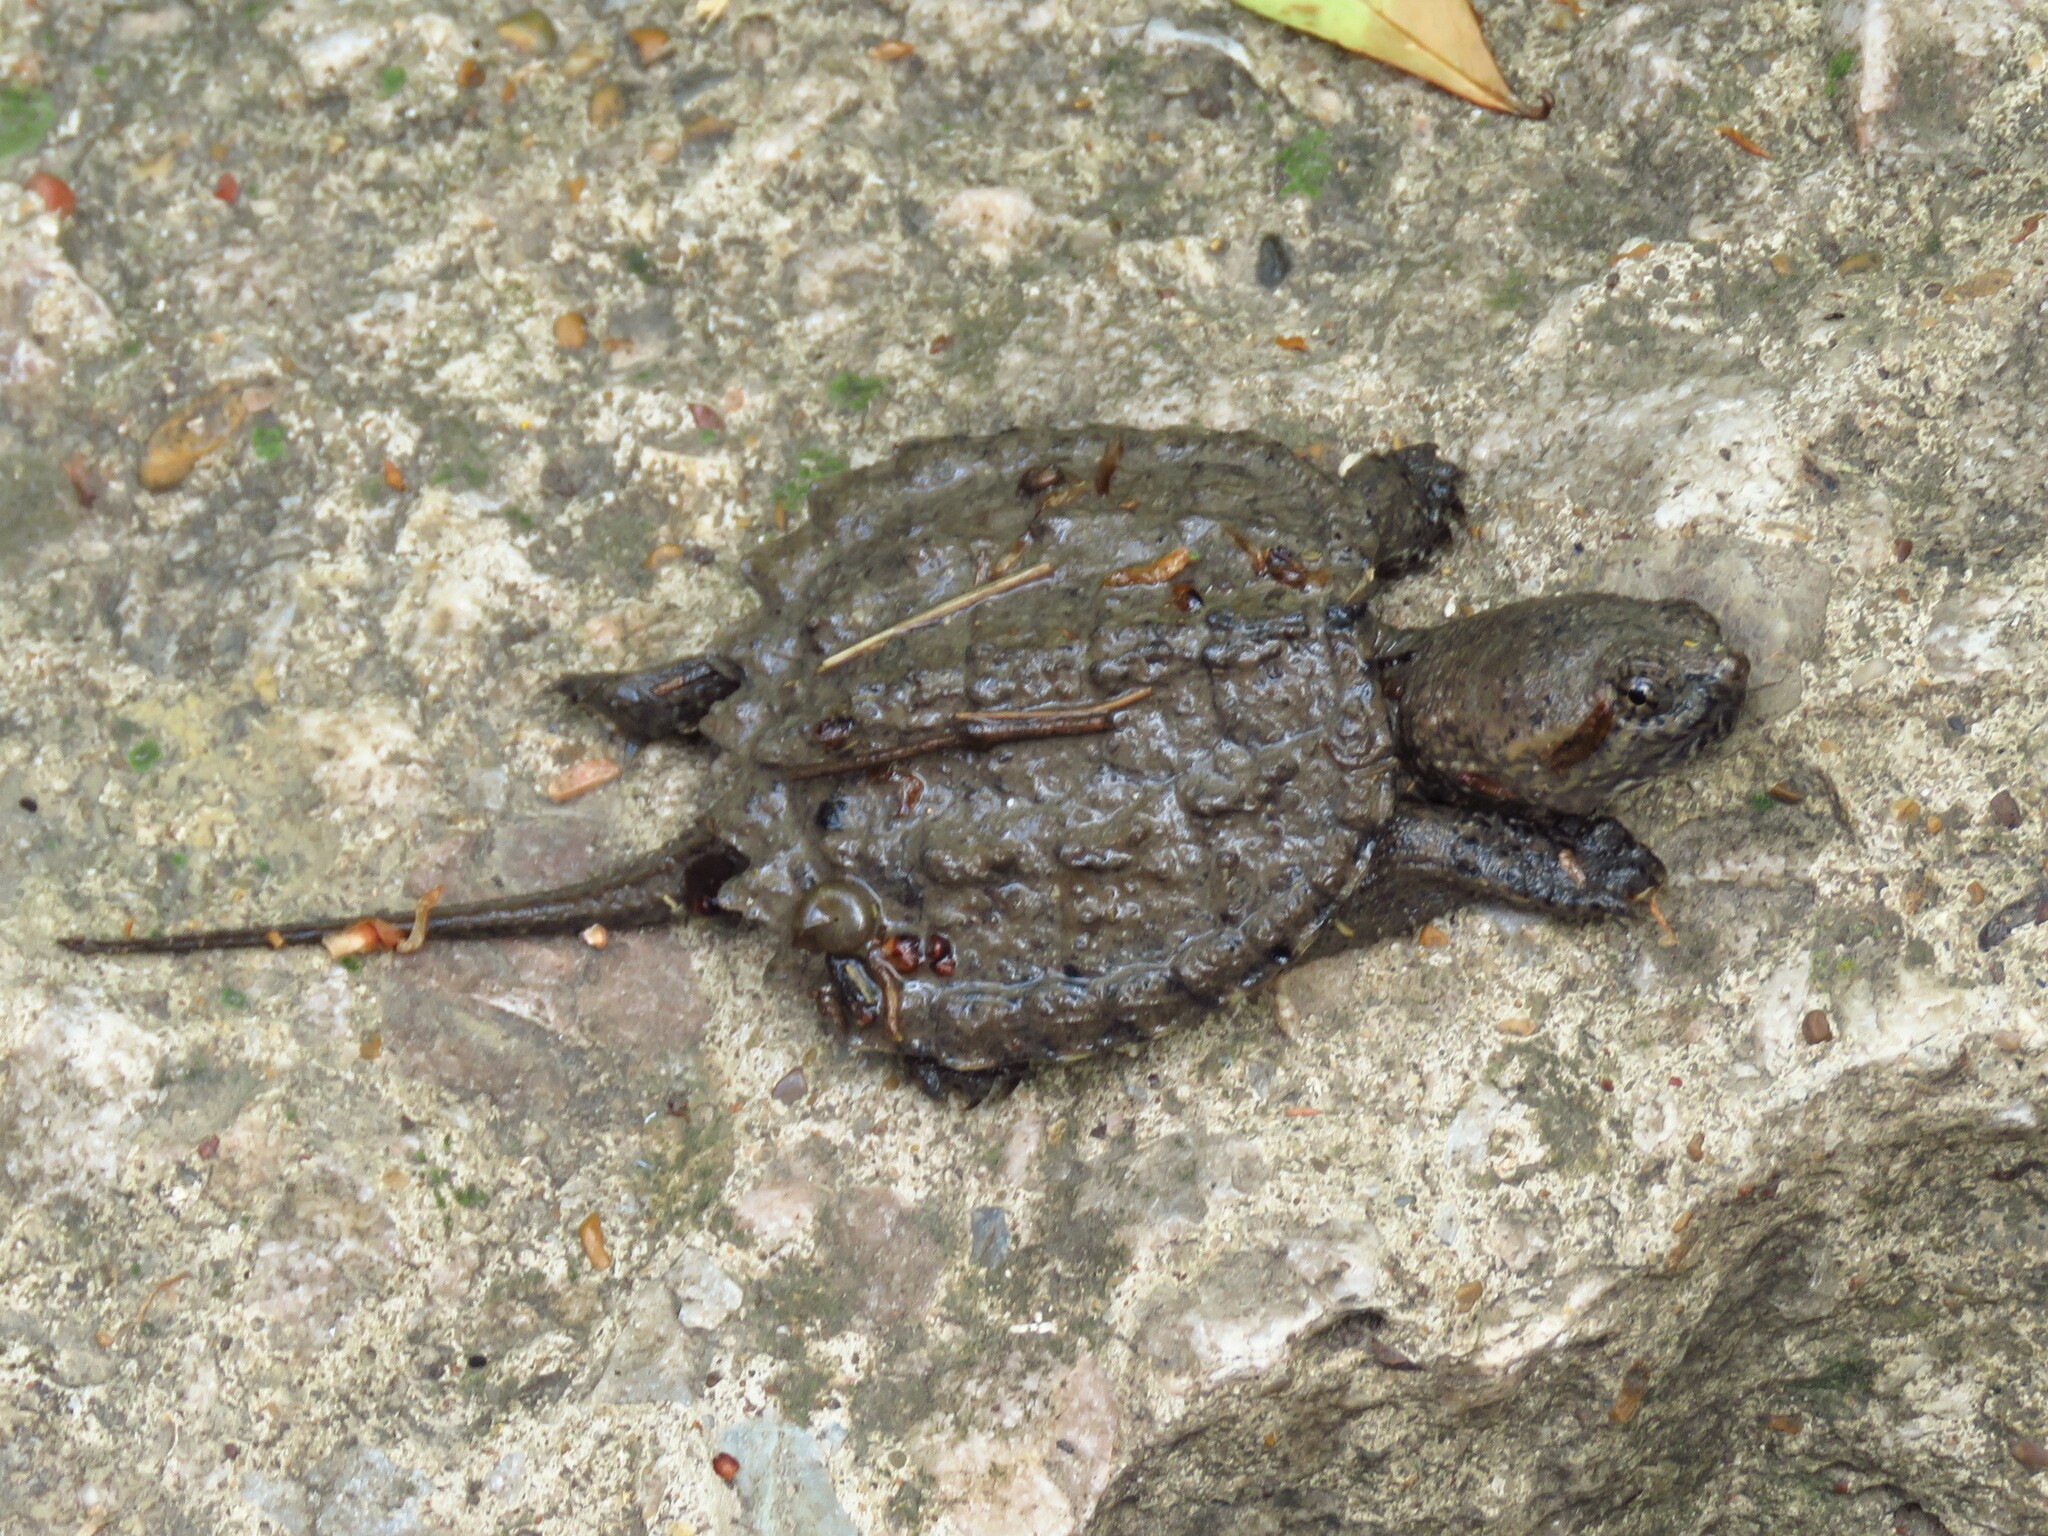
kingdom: Animalia
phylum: Chordata
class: Testudines
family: Chelydridae
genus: Chelydra
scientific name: Chelydra serpentina
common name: Common snapping turtle
